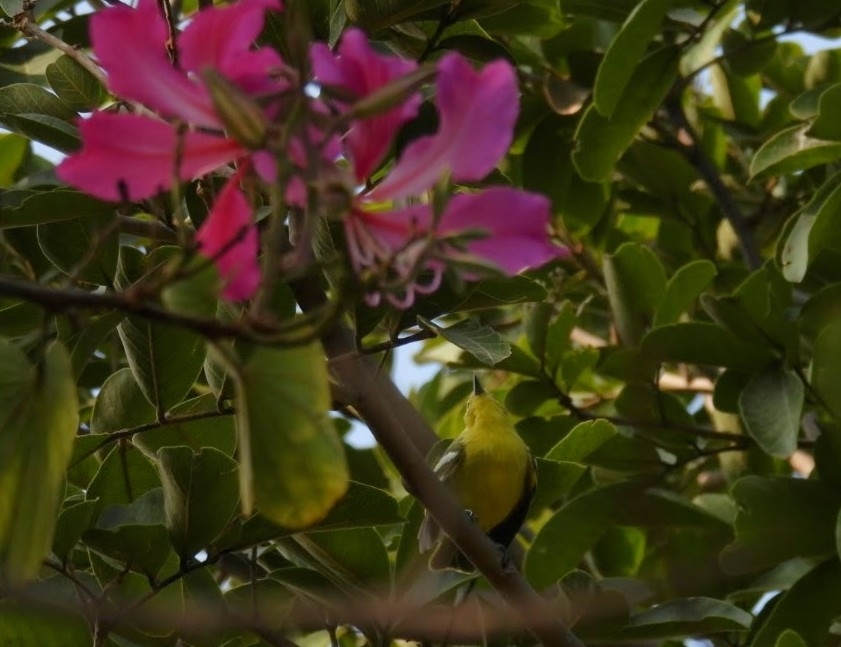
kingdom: Animalia
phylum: Chordata
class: Aves
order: Passeriformes
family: Aegithinidae
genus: Aegithina
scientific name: Aegithina tiphia
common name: Common iora
